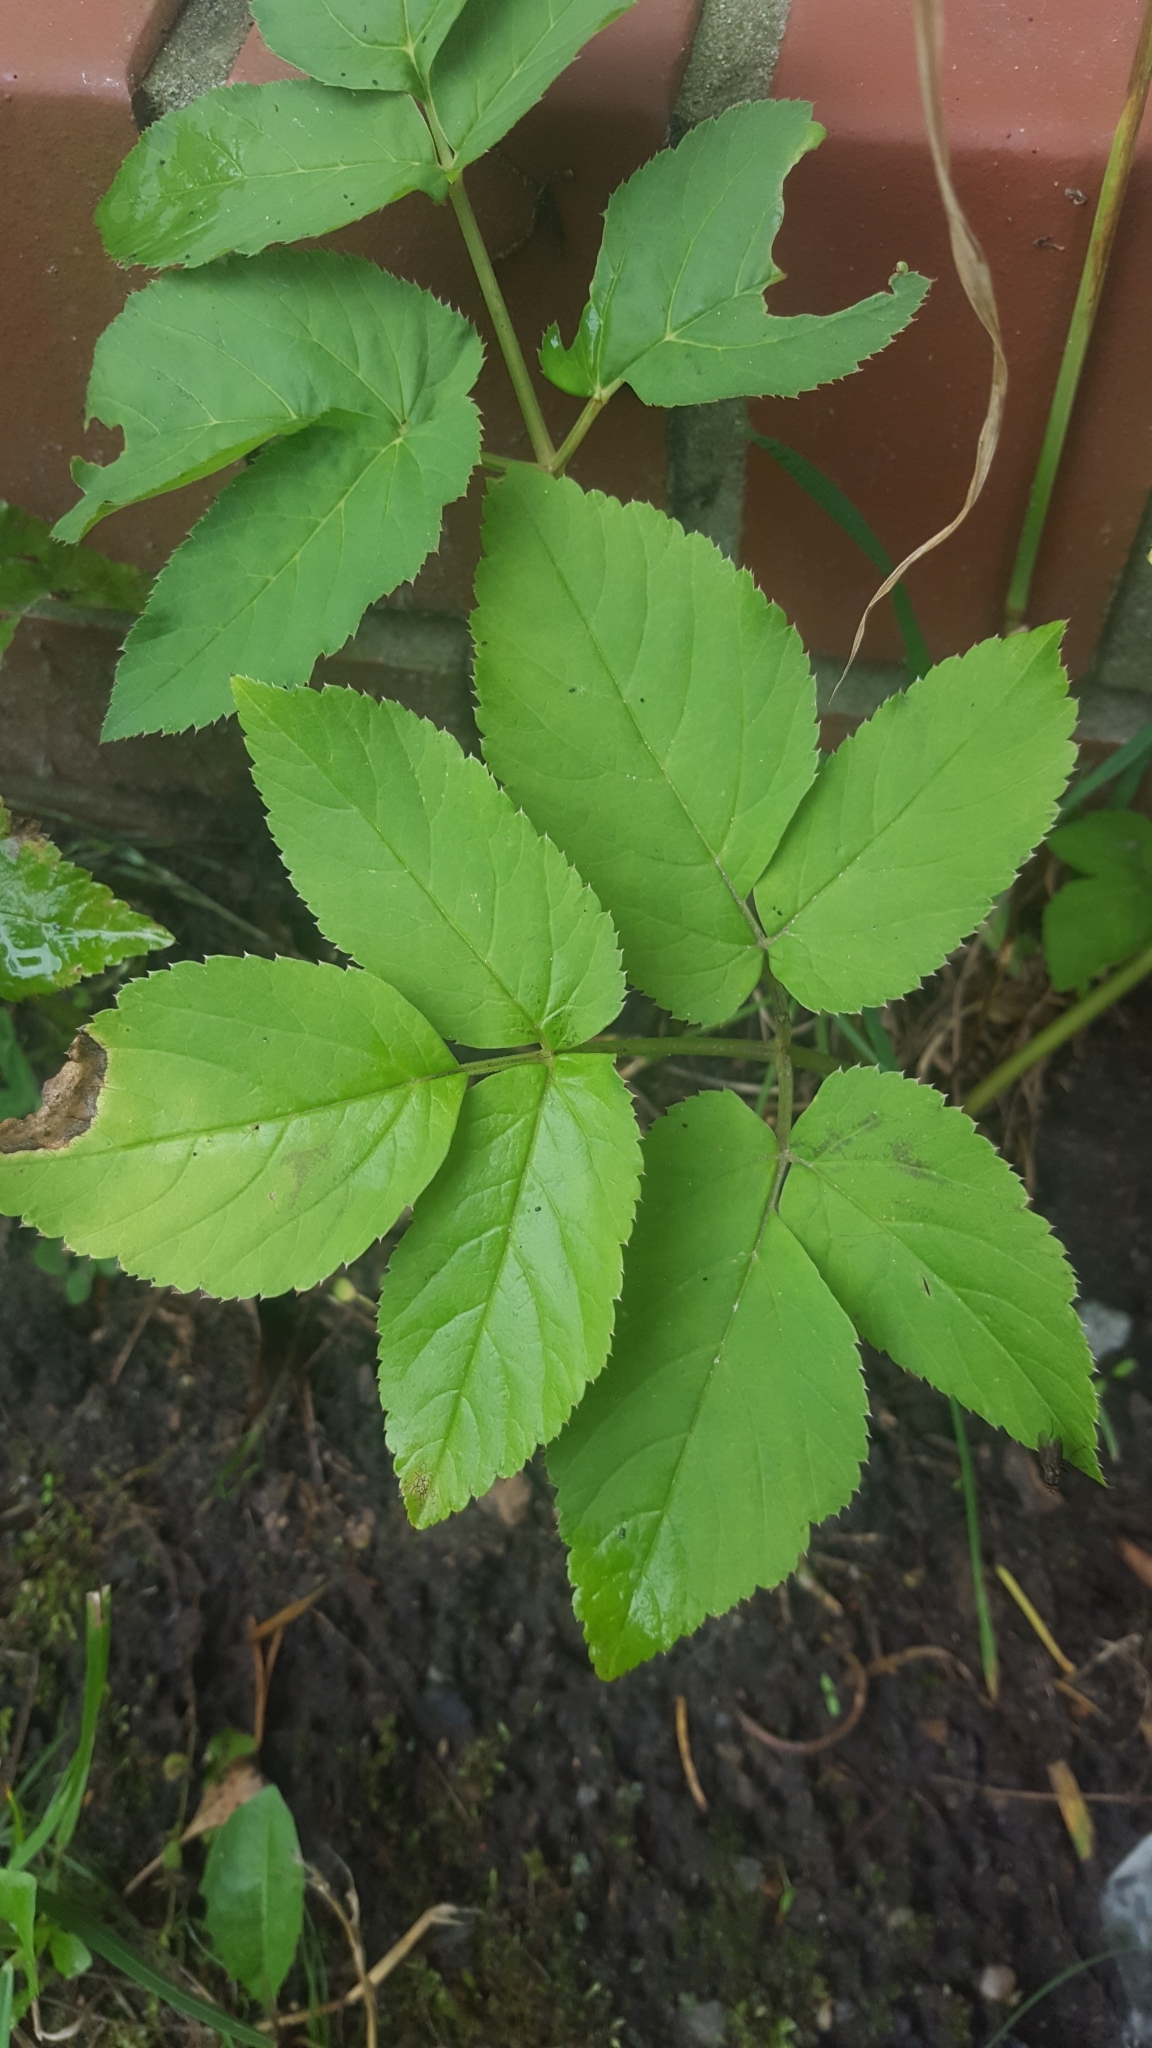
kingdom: Plantae
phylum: Tracheophyta
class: Magnoliopsida
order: Apiales
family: Apiaceae
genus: Aegopodium
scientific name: Aegopodium podagraria
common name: Ground-elder
